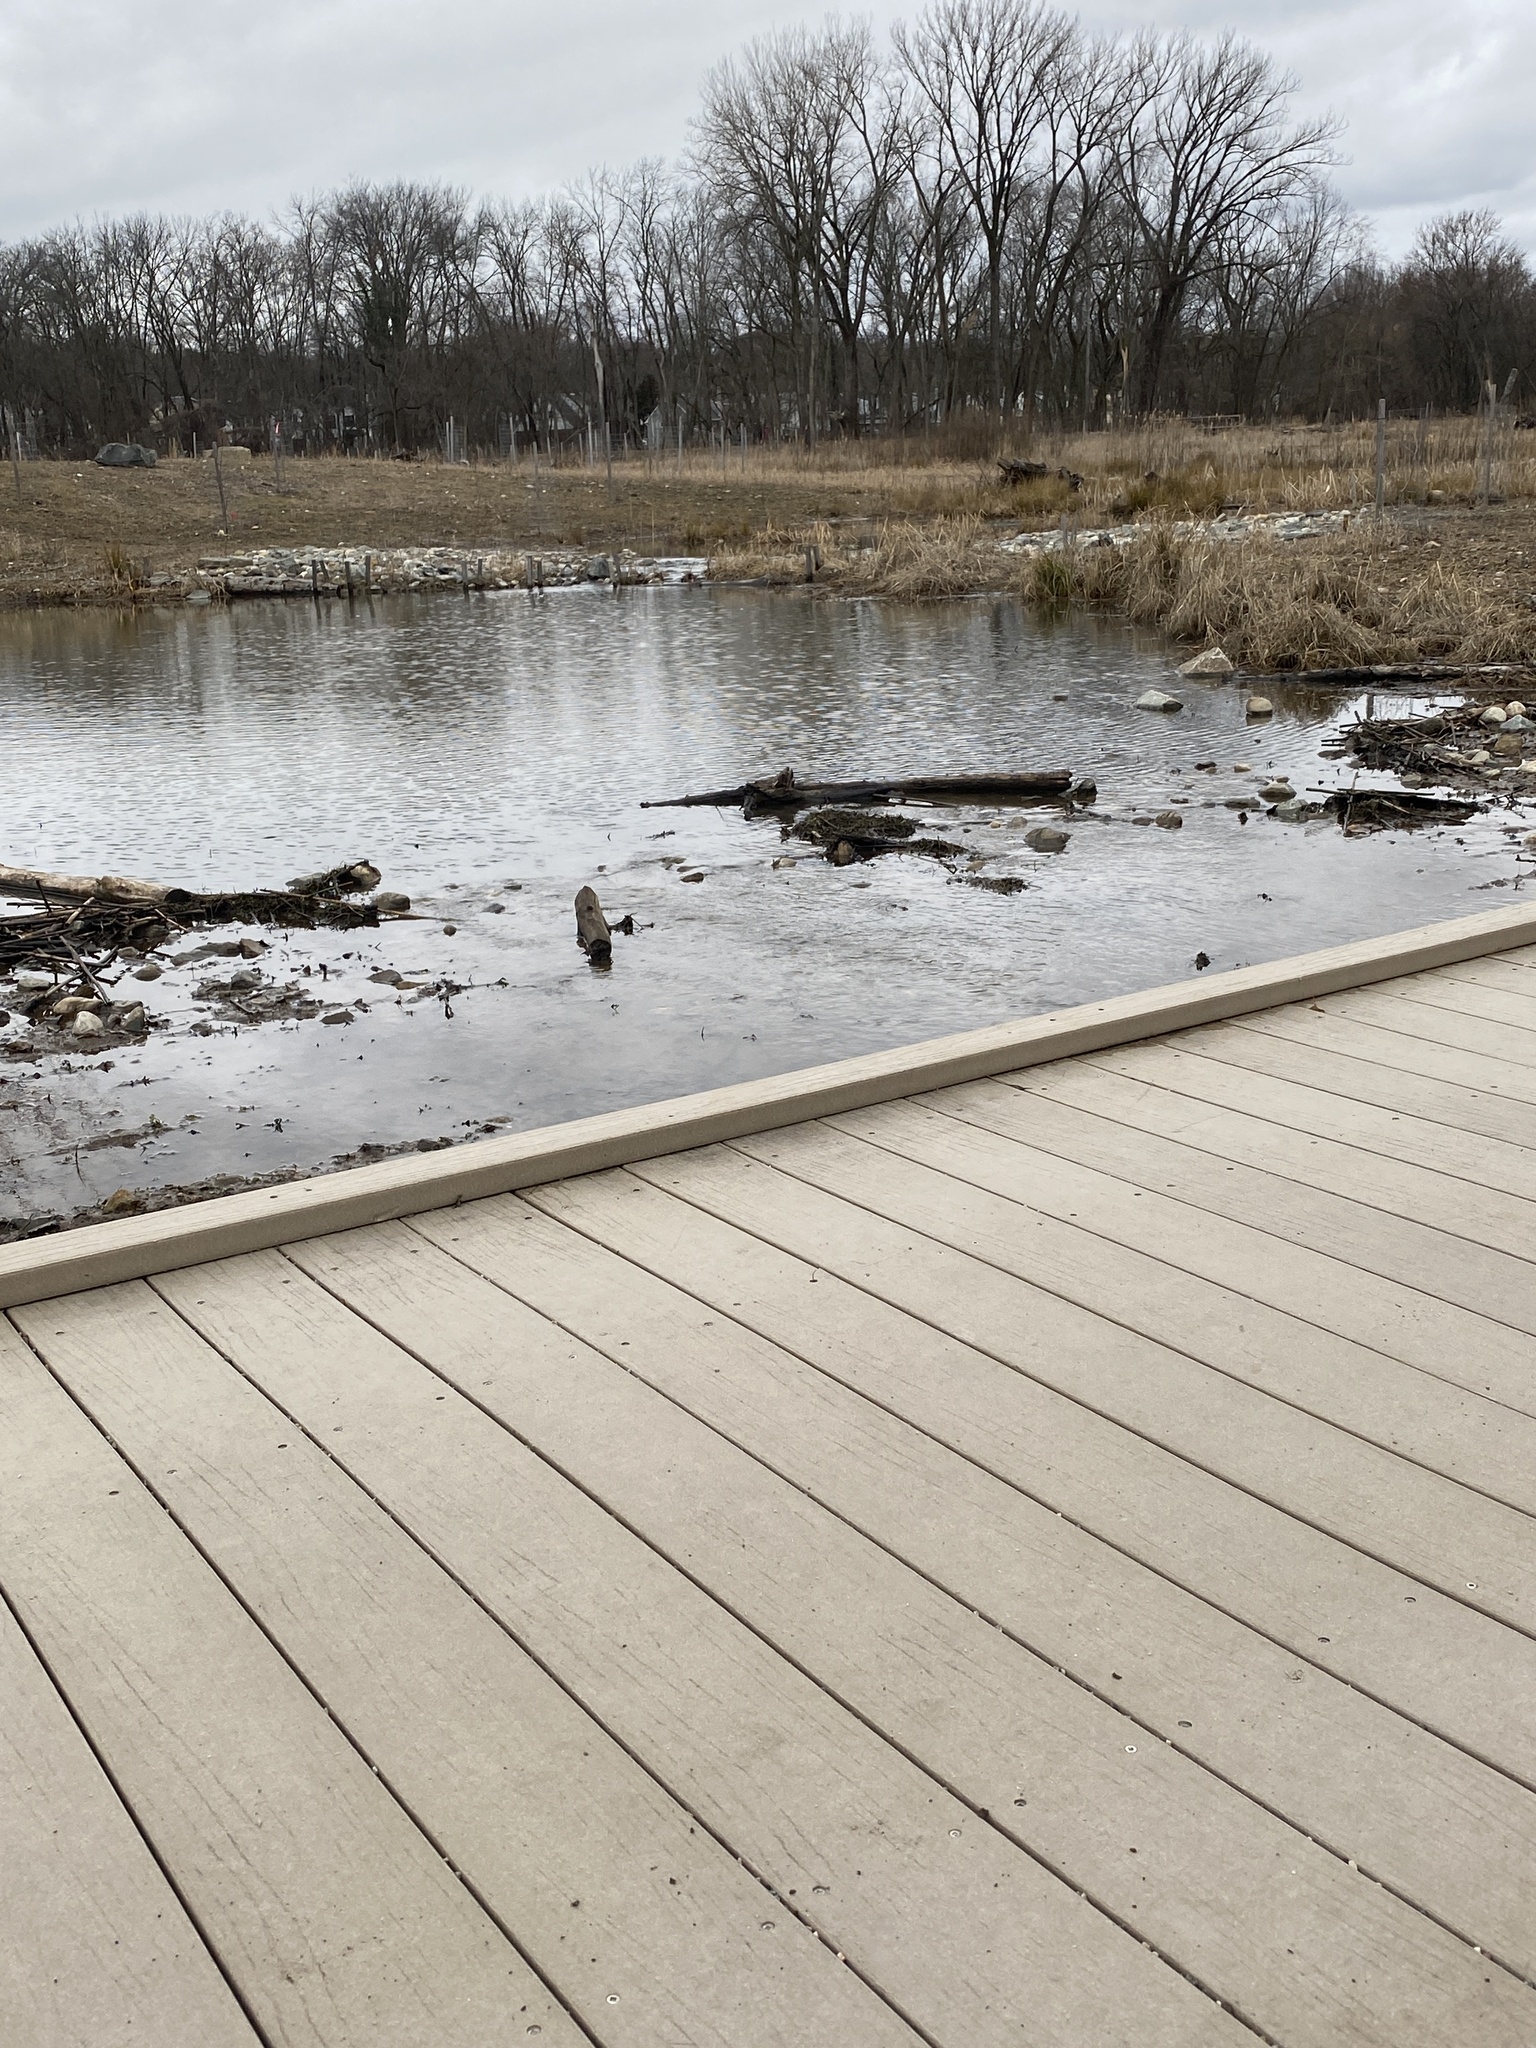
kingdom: Plantae
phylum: Tracheophyta
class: Magnoliopsida
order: Ranunculales
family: Ranunculaceae
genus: Ranunculus
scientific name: Ranunculus sceleratus
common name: Celery-leaved buttercup
